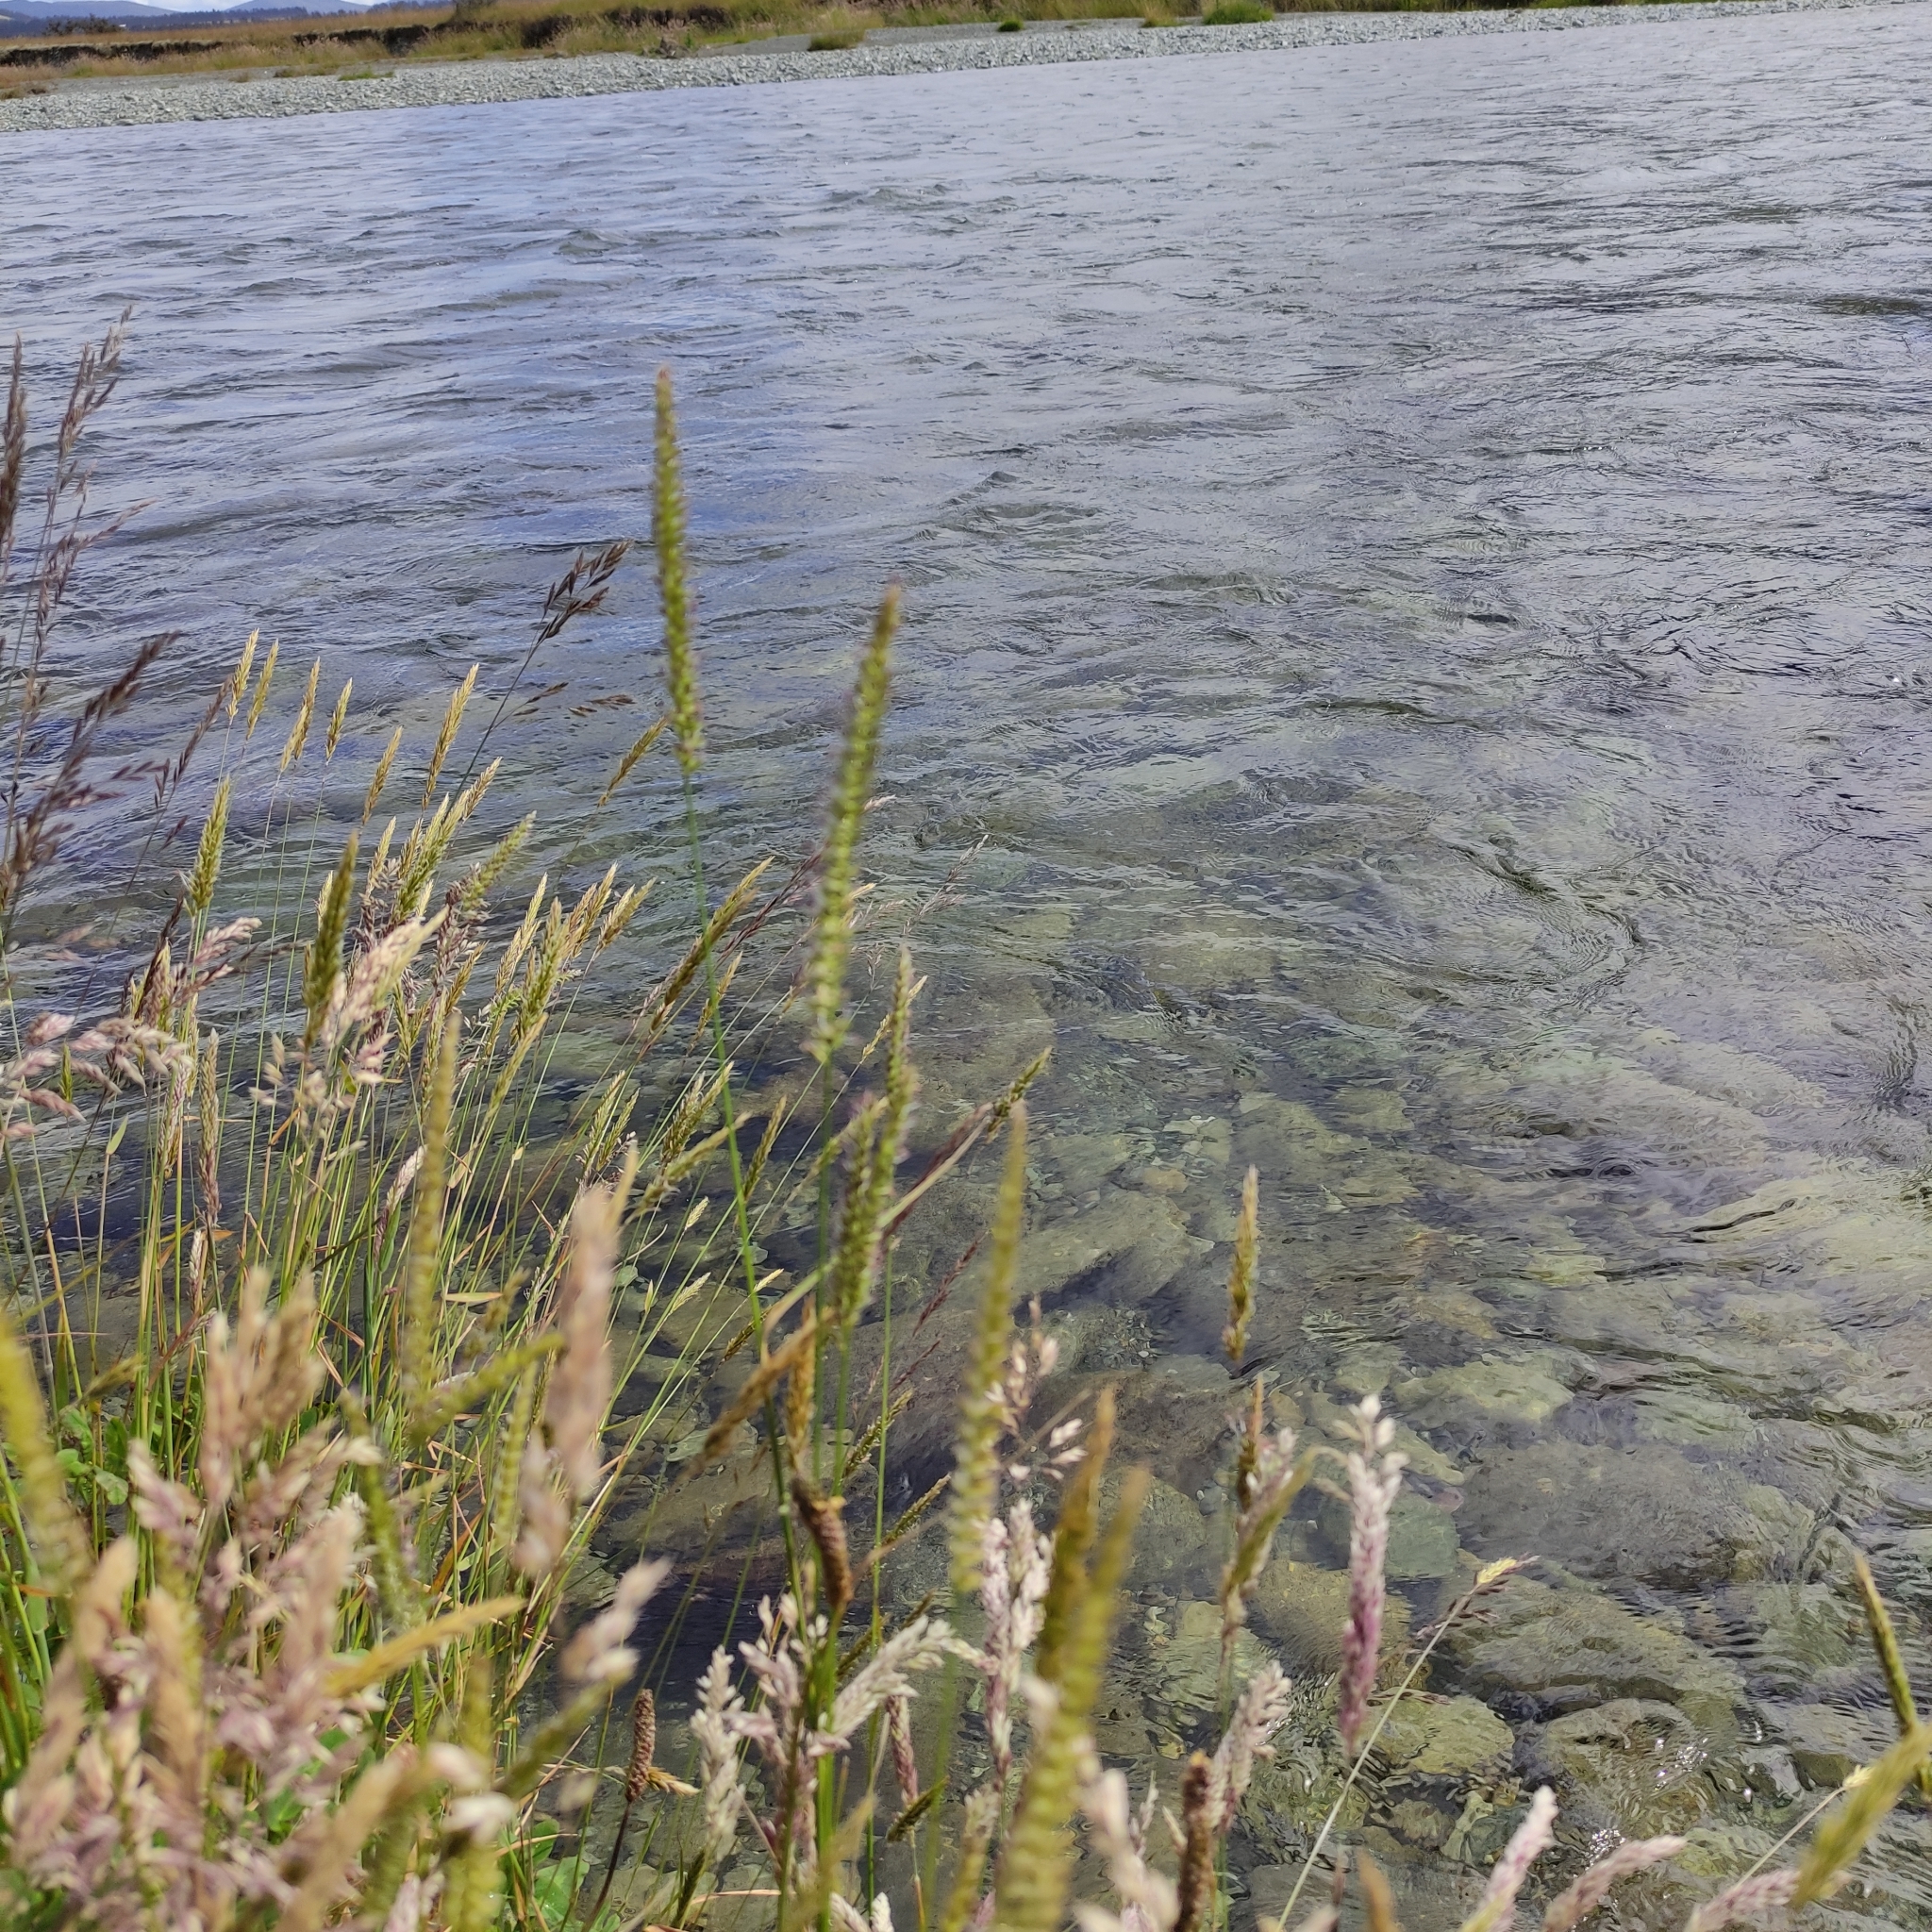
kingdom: Plantae
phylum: Tracheophyta
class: Liliopsida
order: Poales
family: Poaceae
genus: Cynosurus
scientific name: Cynosurus cristatus
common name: Crested dog's-tail
